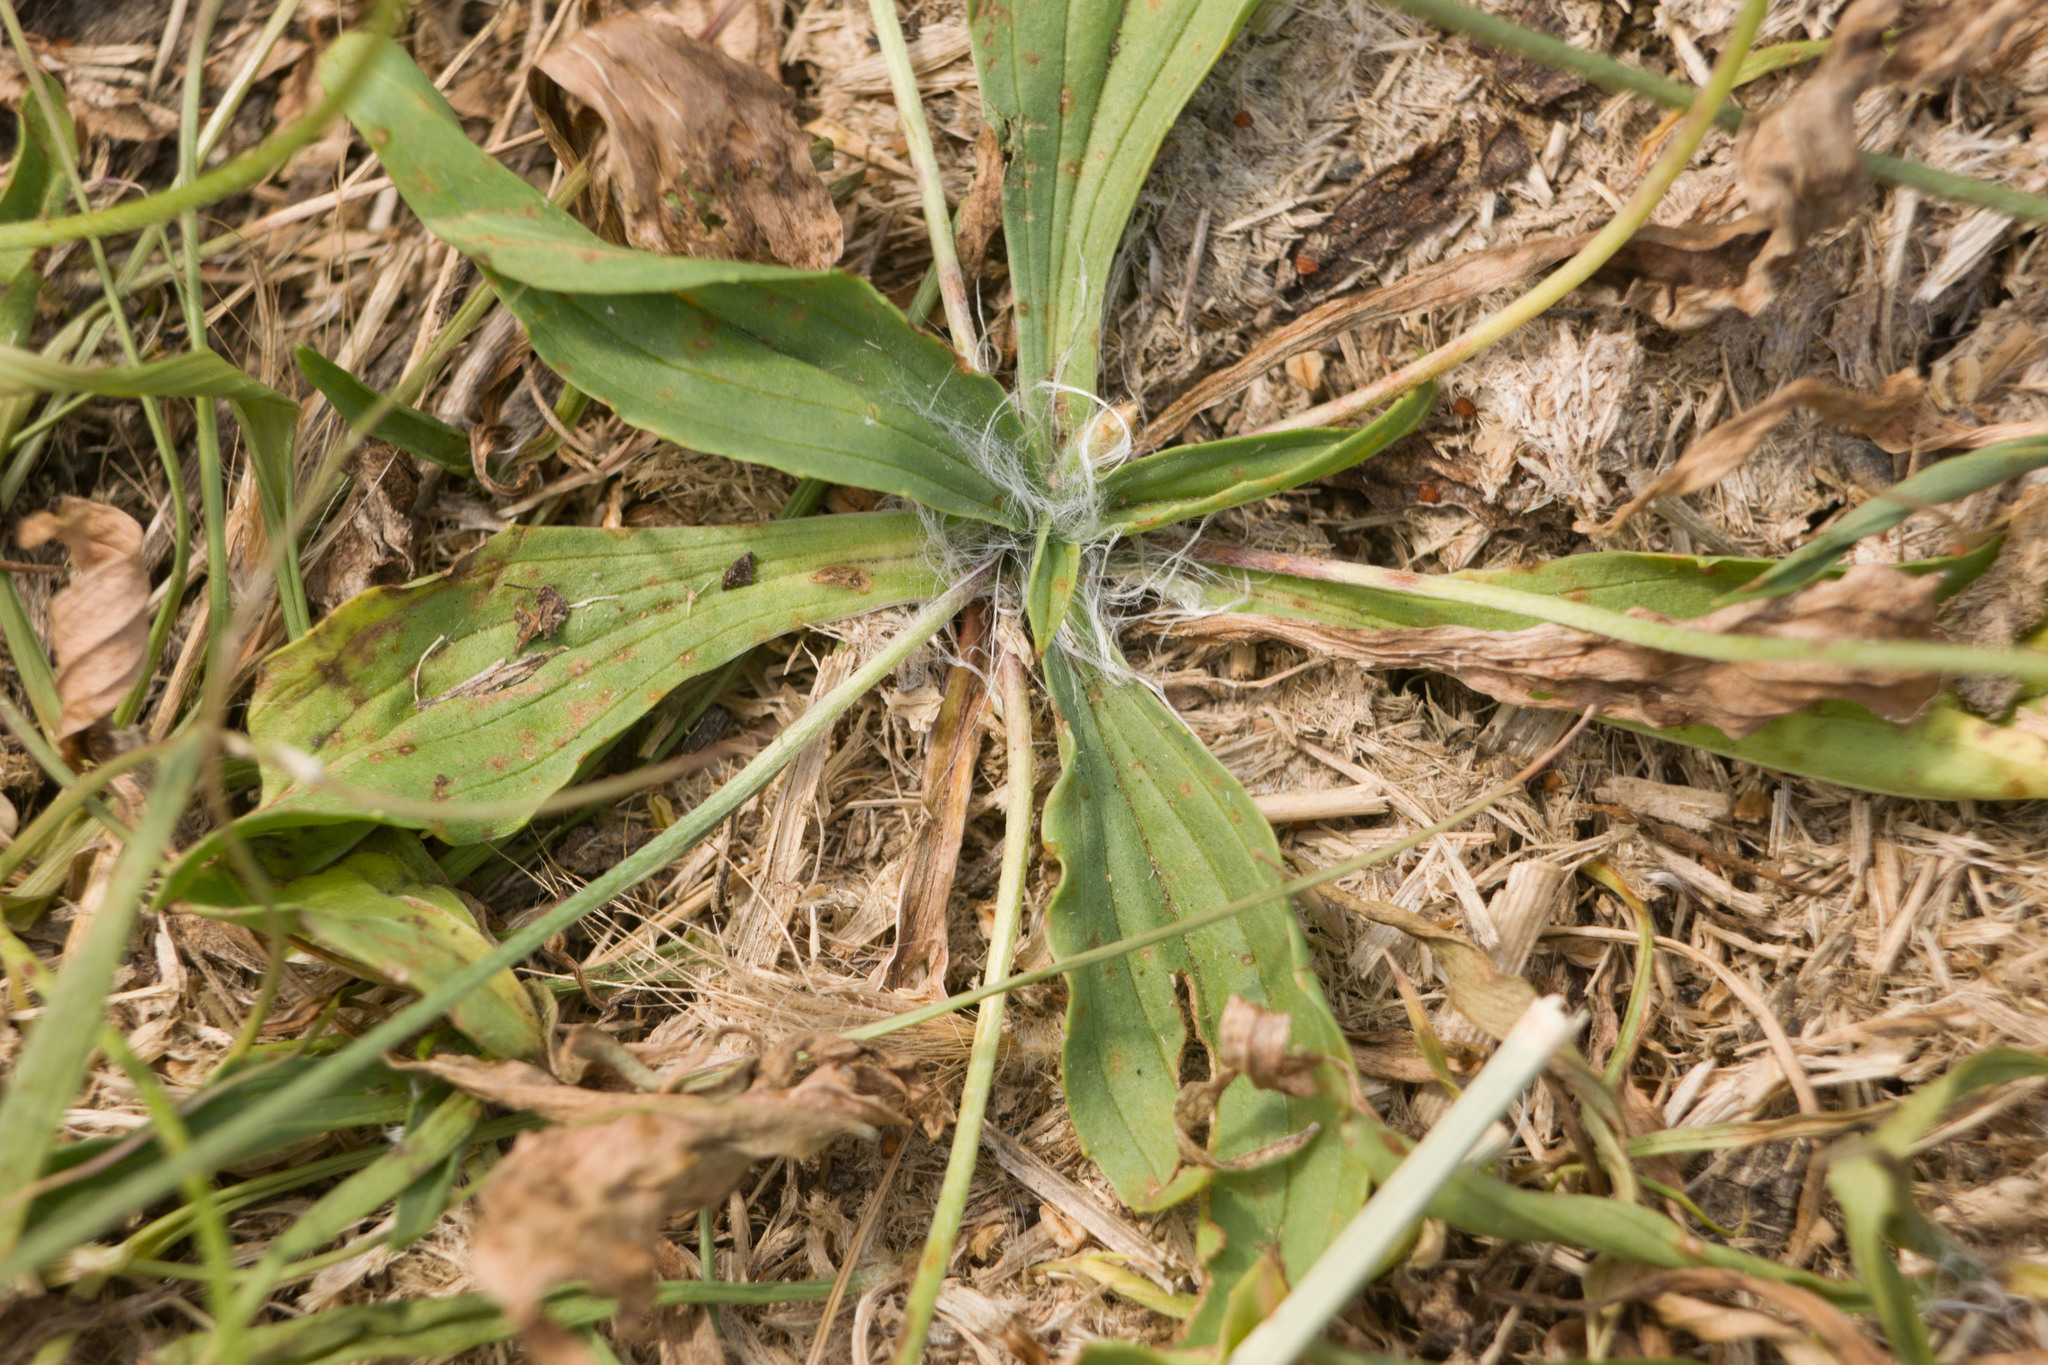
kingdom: Plantae
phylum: Tracheophyta
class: Magnoliopsida
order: Lamiales
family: Plantaginaceae
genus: Plantago
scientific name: Plantago lanceolata
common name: Ribwort plantain
